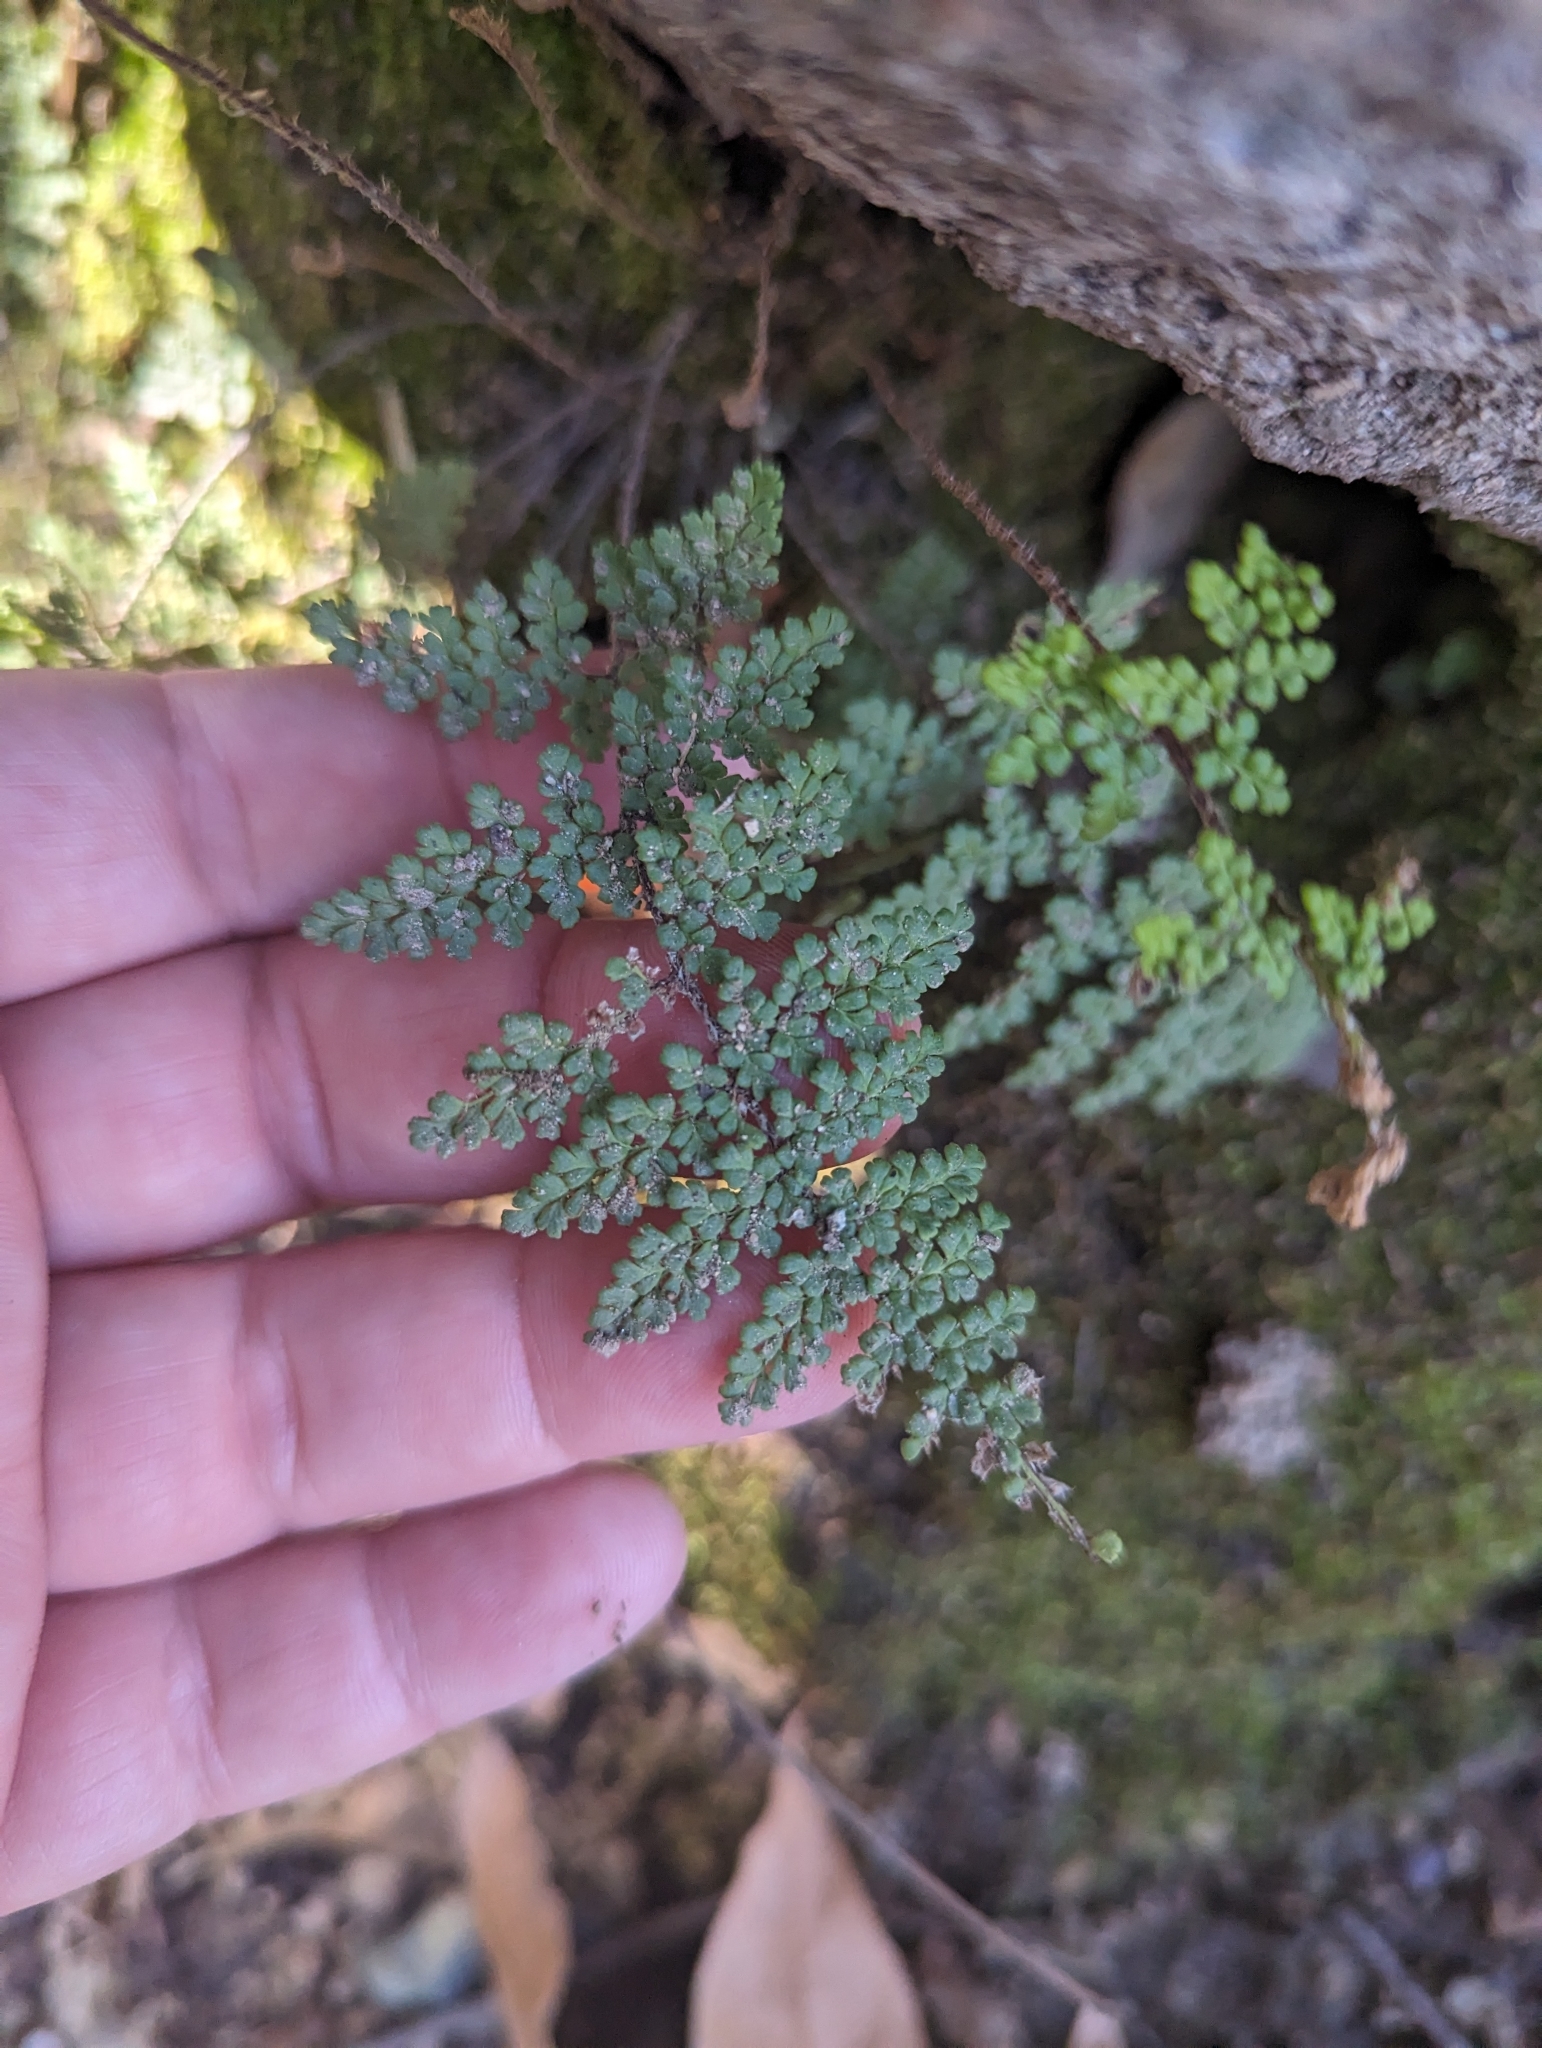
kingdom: Plantae
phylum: Tracheophyta
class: Polypodiopsida
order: Polypodiales
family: Pteridaceae
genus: Myriopteris
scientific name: Myriopteris fendleri
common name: Fendler's lip fern
